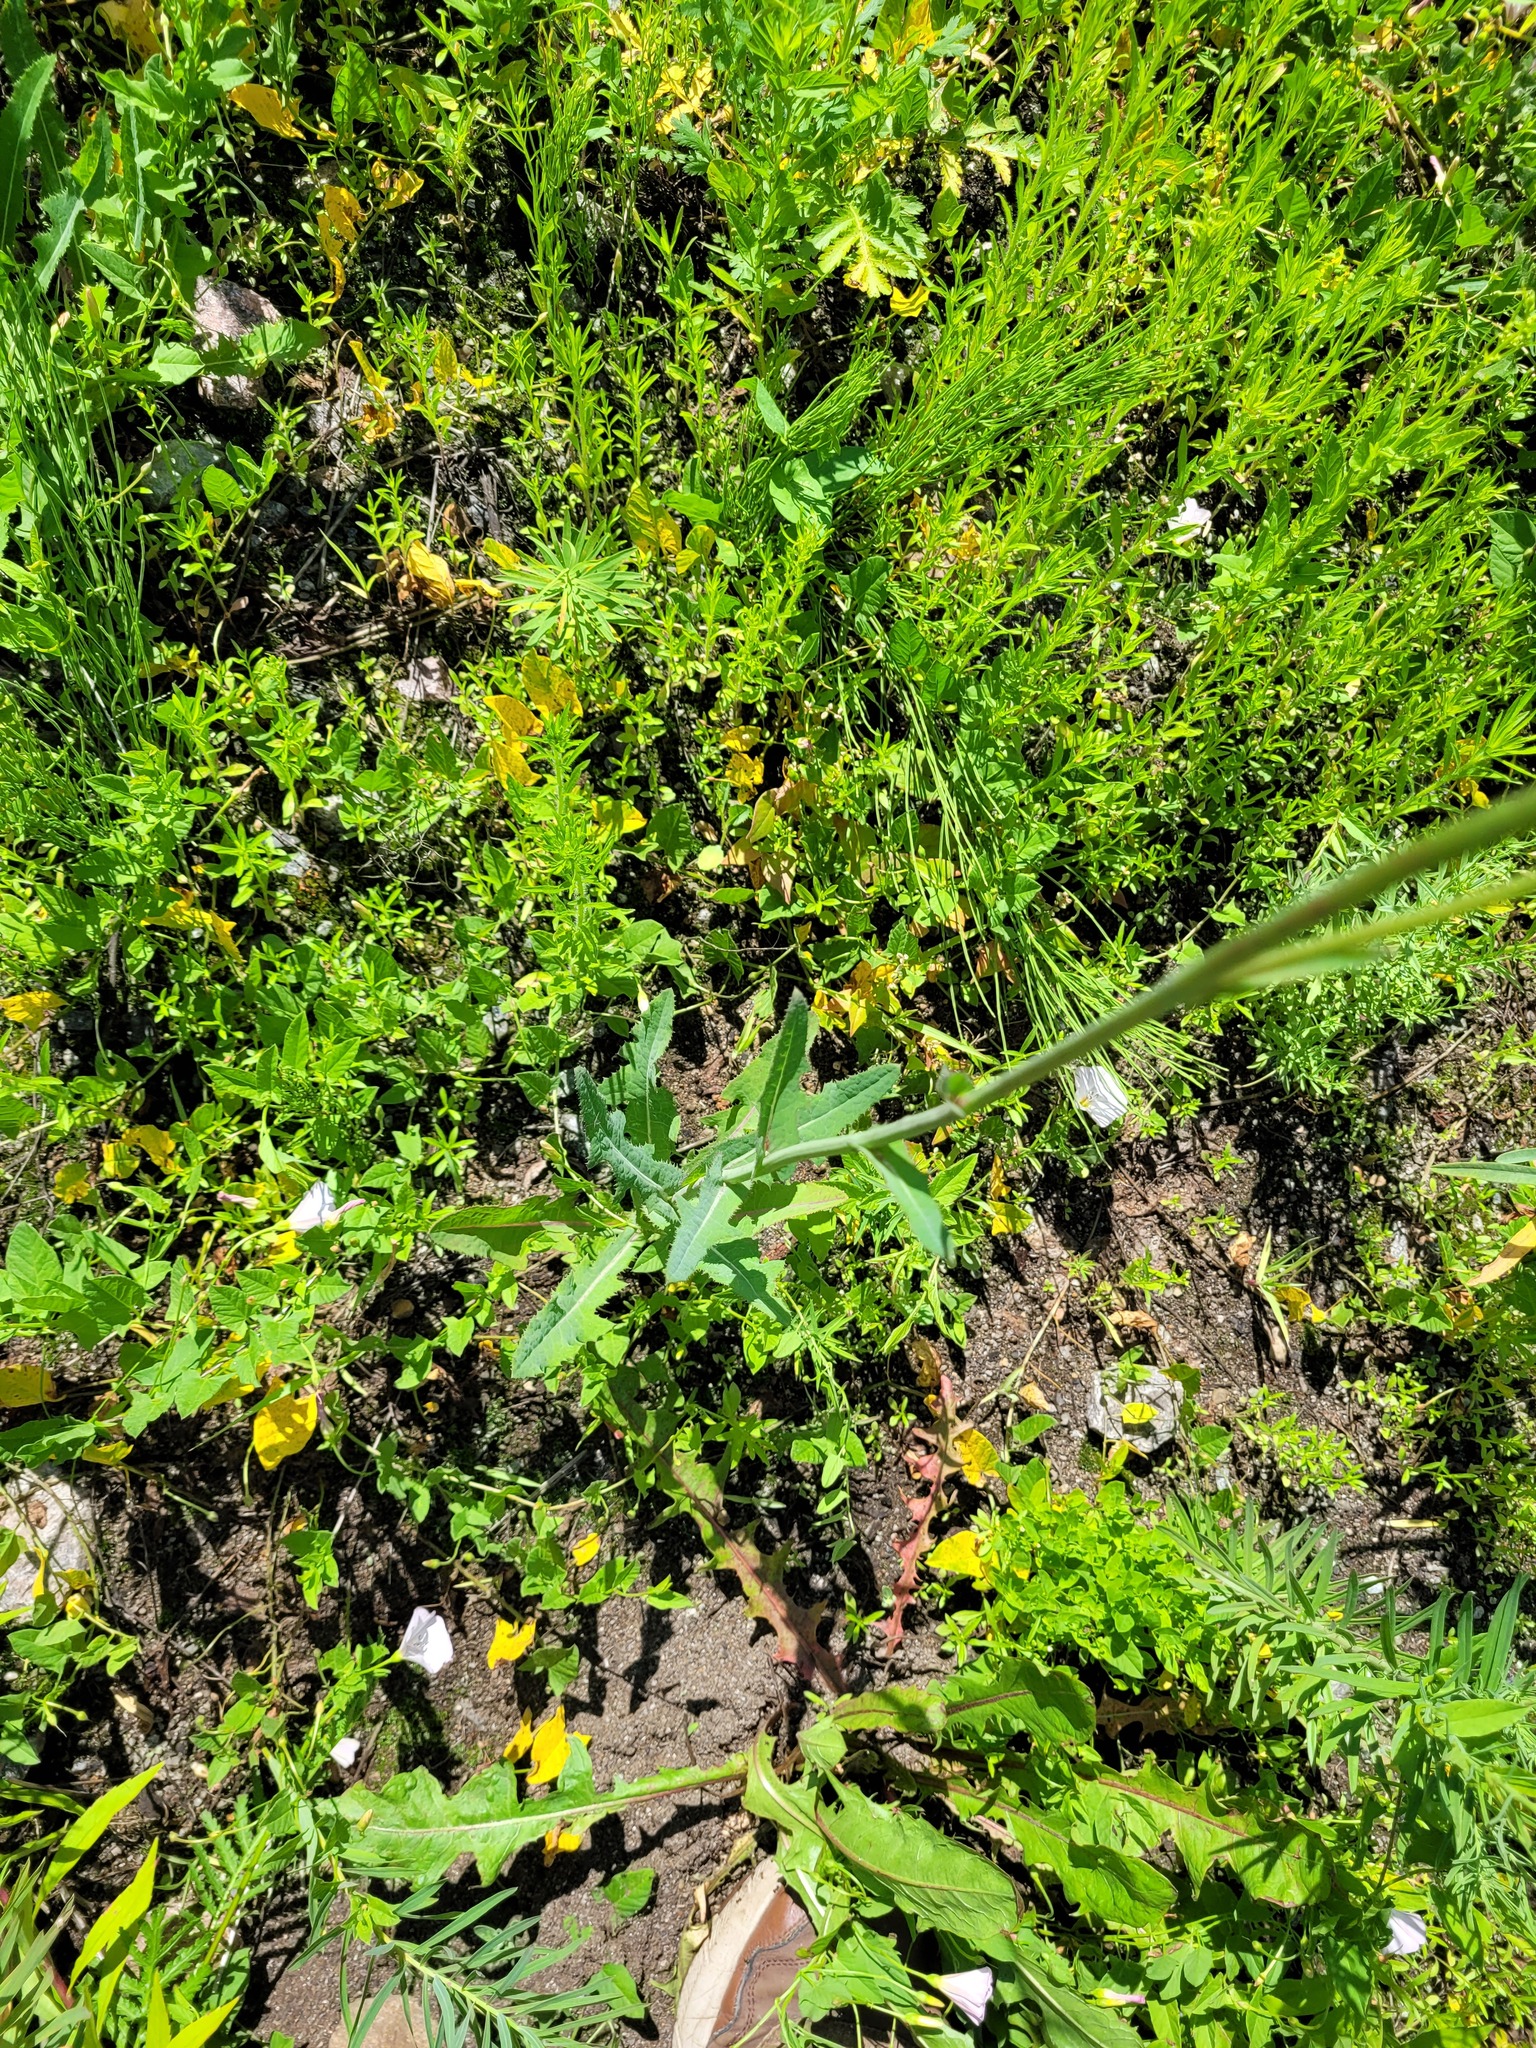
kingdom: Plantae
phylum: Tracheophyta
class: Magnoliopsida
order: Asterales
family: Asteraceae
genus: Sonchus
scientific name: Sonchus arvensis
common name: Perennial sow-thistle
